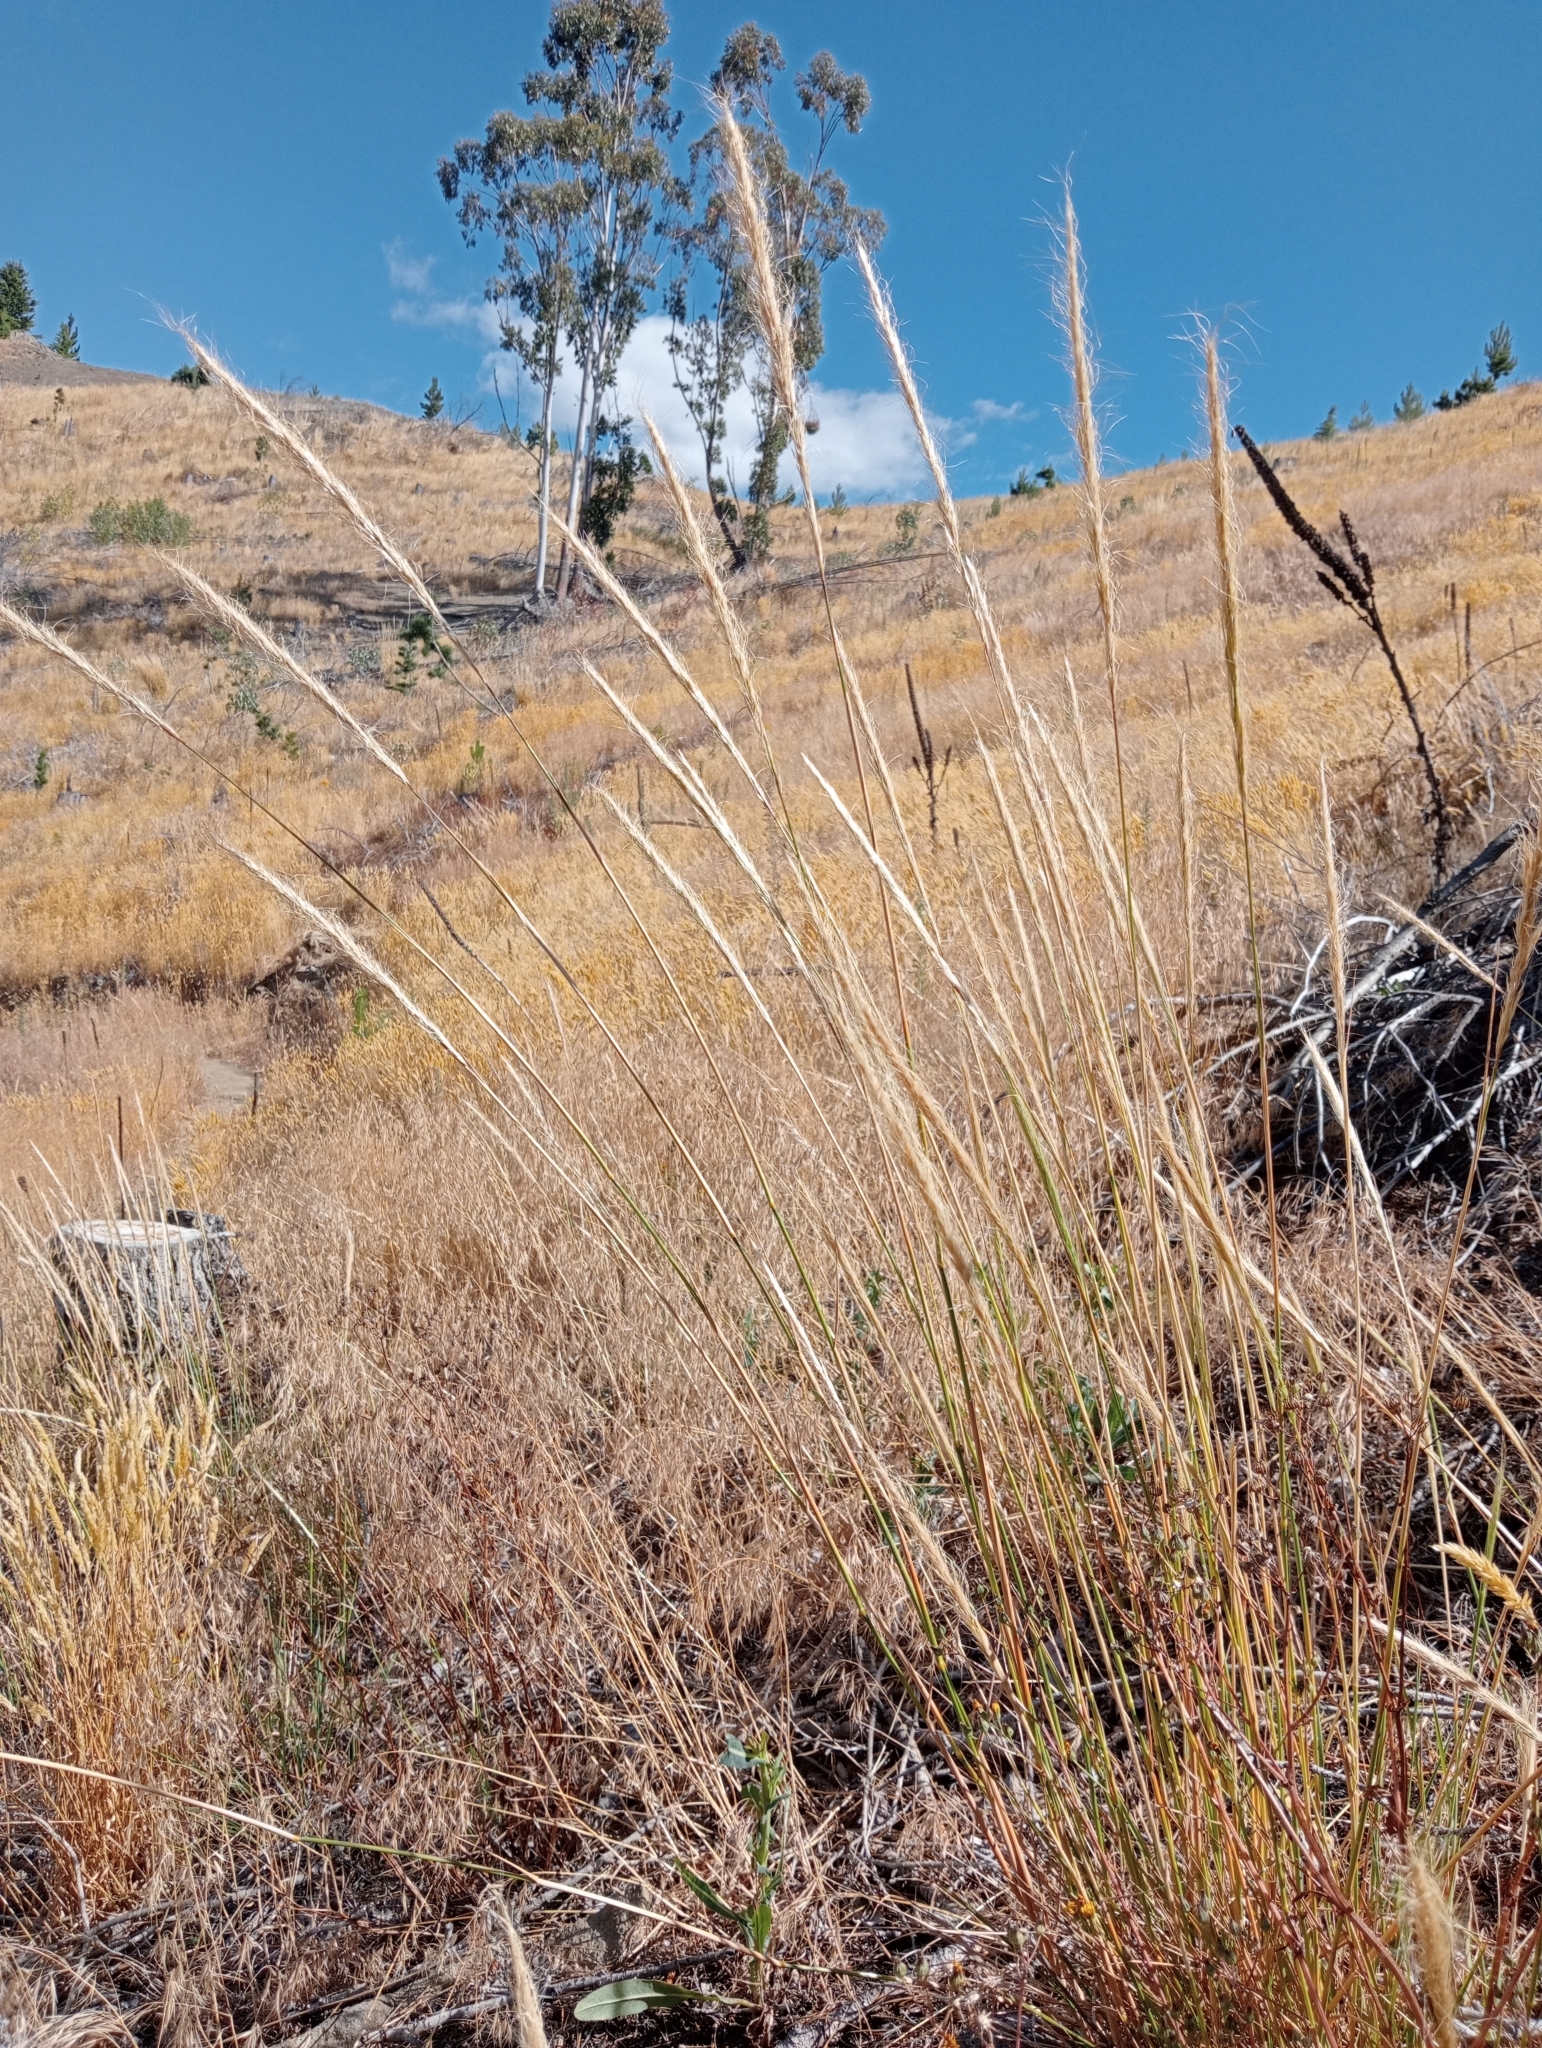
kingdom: Plantae
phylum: Tracheophyta
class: Liliopsida
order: Poales
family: Poaceae
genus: Dichelachne
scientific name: Dichelachne crinita
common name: Clovenfoot plumegrass
